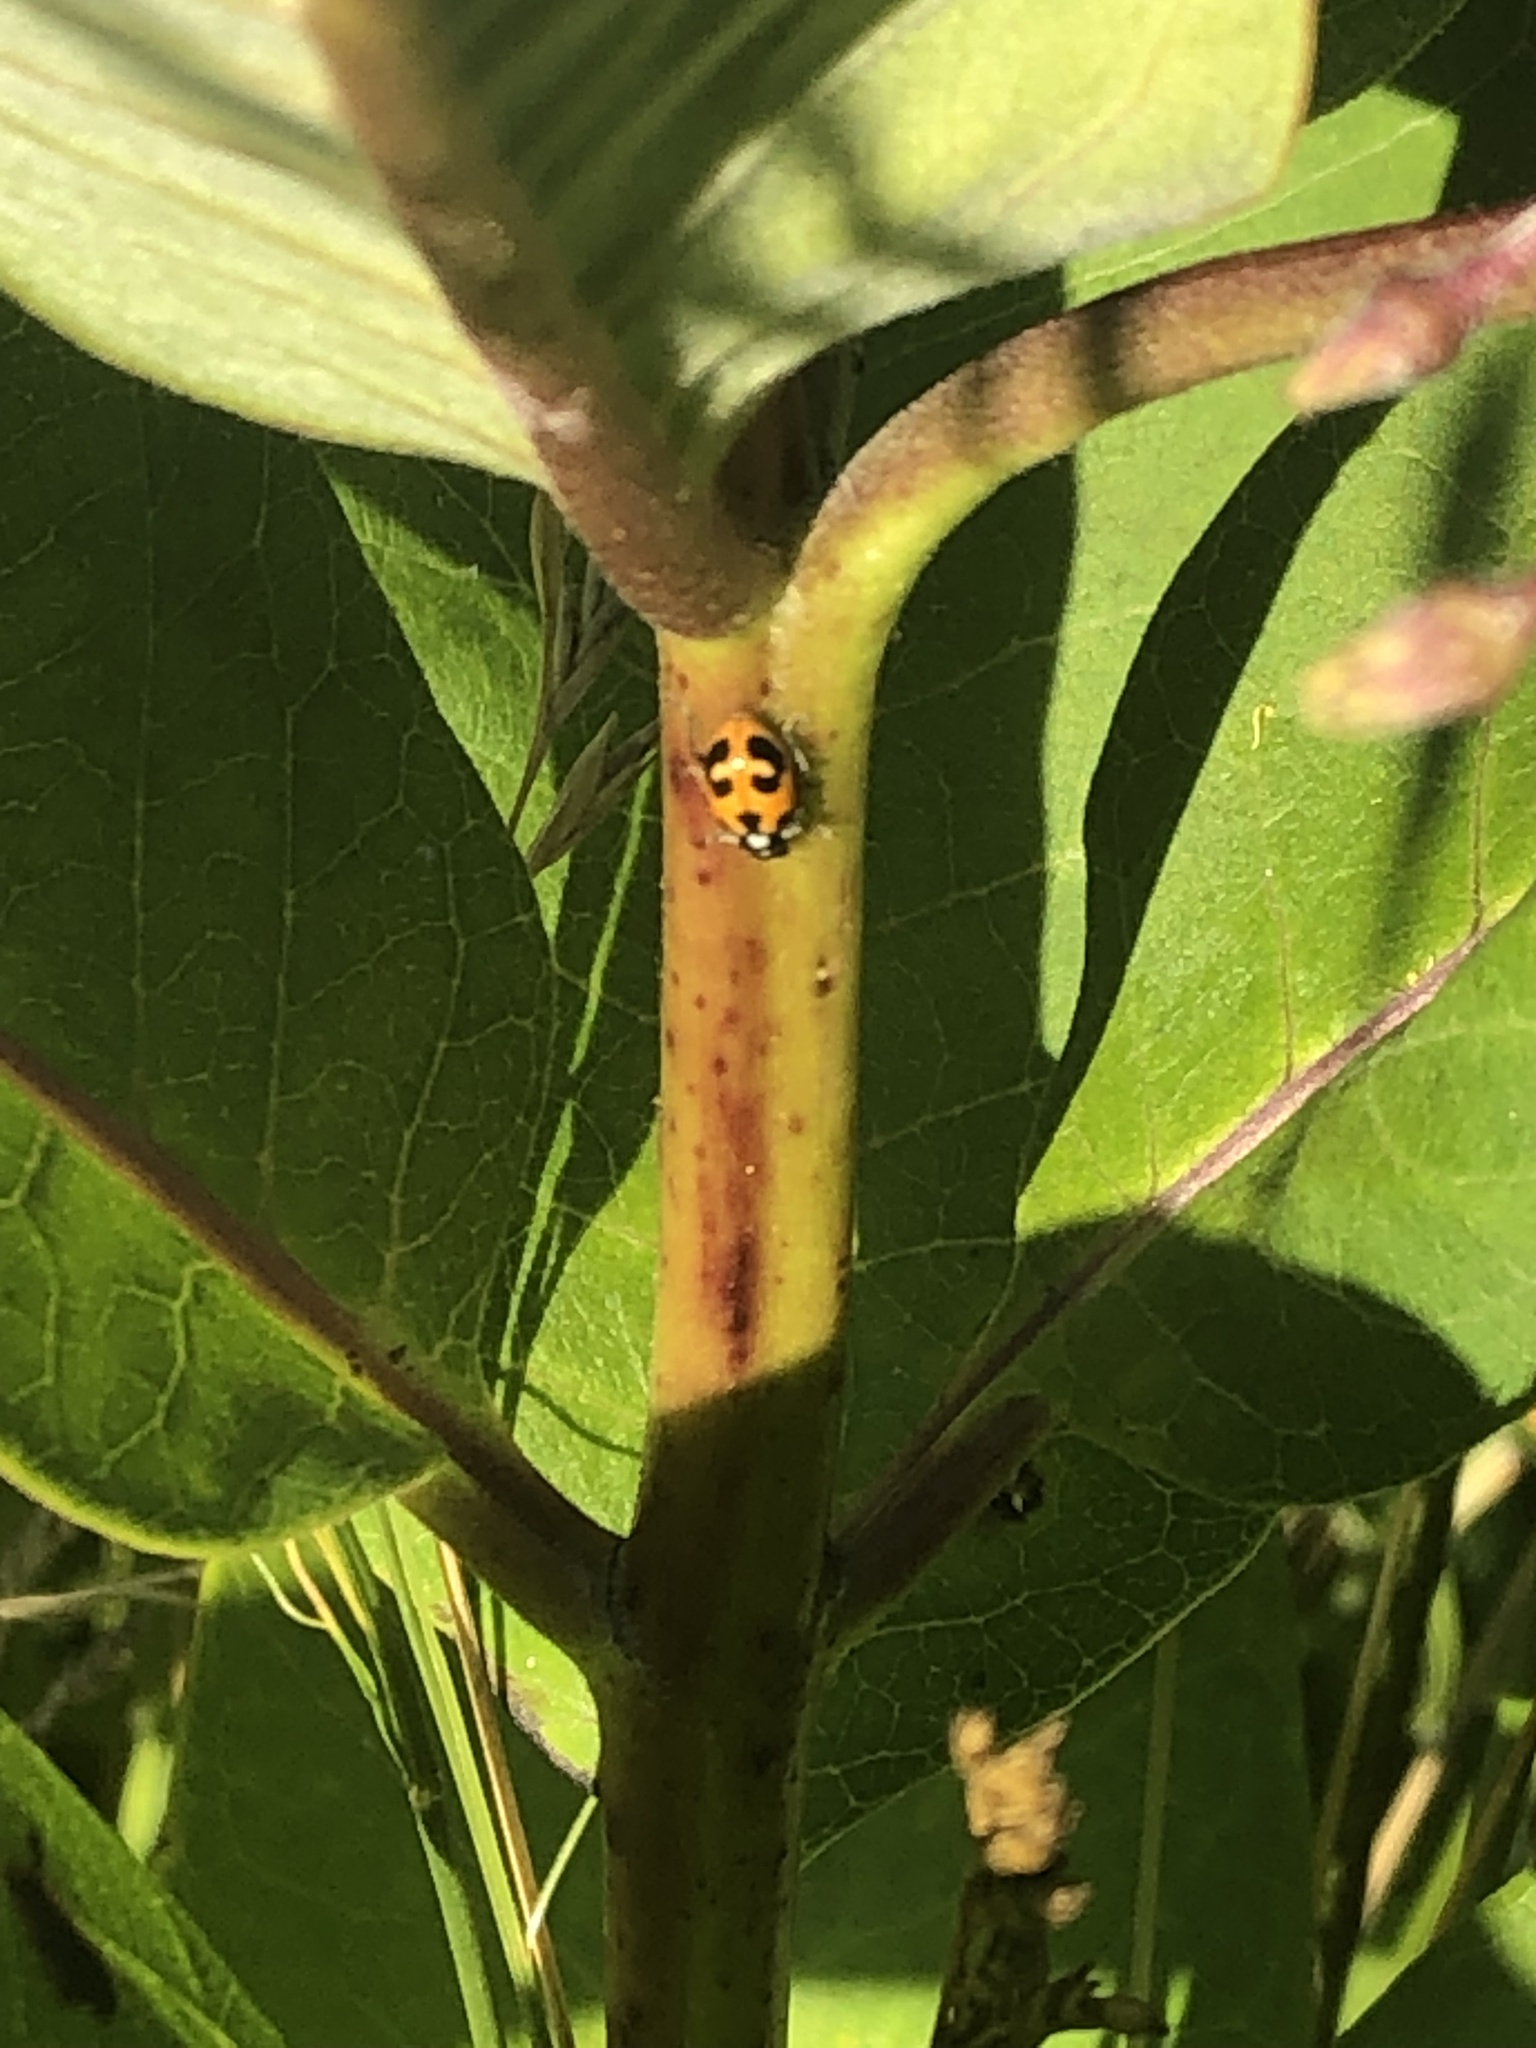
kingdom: Animalia
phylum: Arthropoda
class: Insecta
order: Coleoptera
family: Coccinellidae
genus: Hippodamia
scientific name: Hippodamia parenthesis
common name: Parenthesis lady beetle
